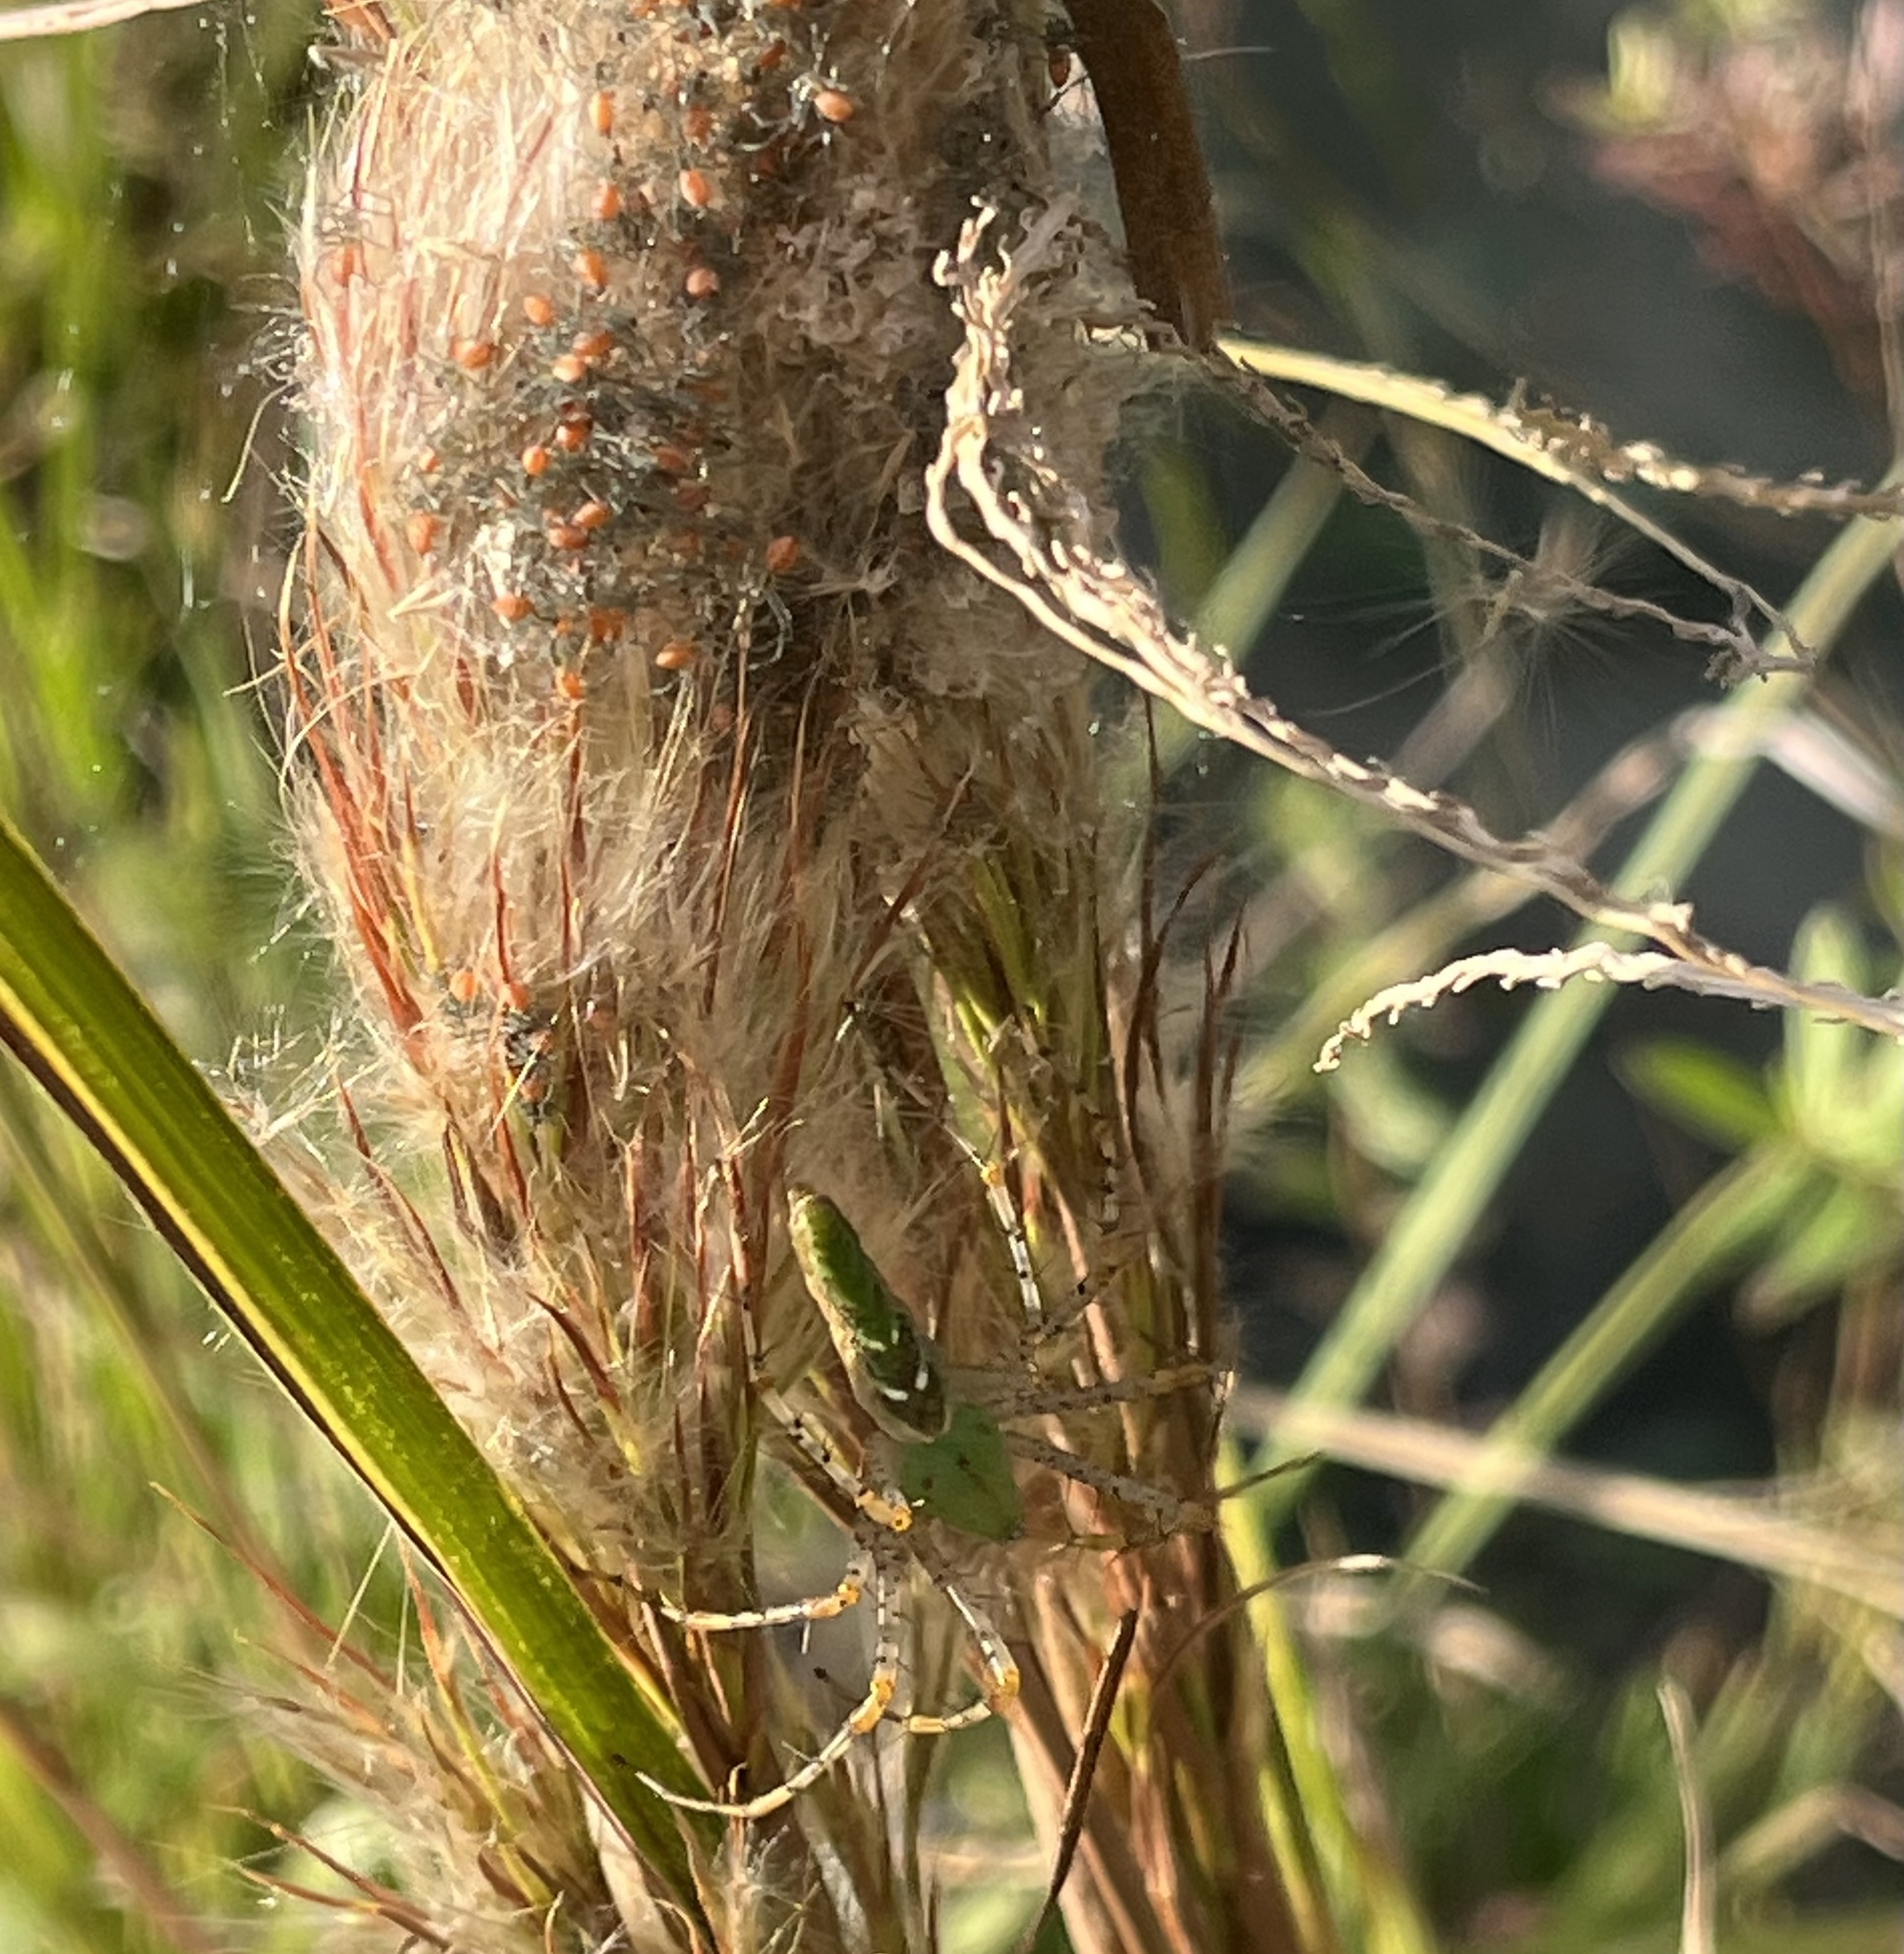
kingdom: Animalia
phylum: Arthropoda
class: Arachnida
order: Araneae
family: Oxyopidae
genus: Peucetia
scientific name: Peucetia viridans
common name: Lynx spiders
